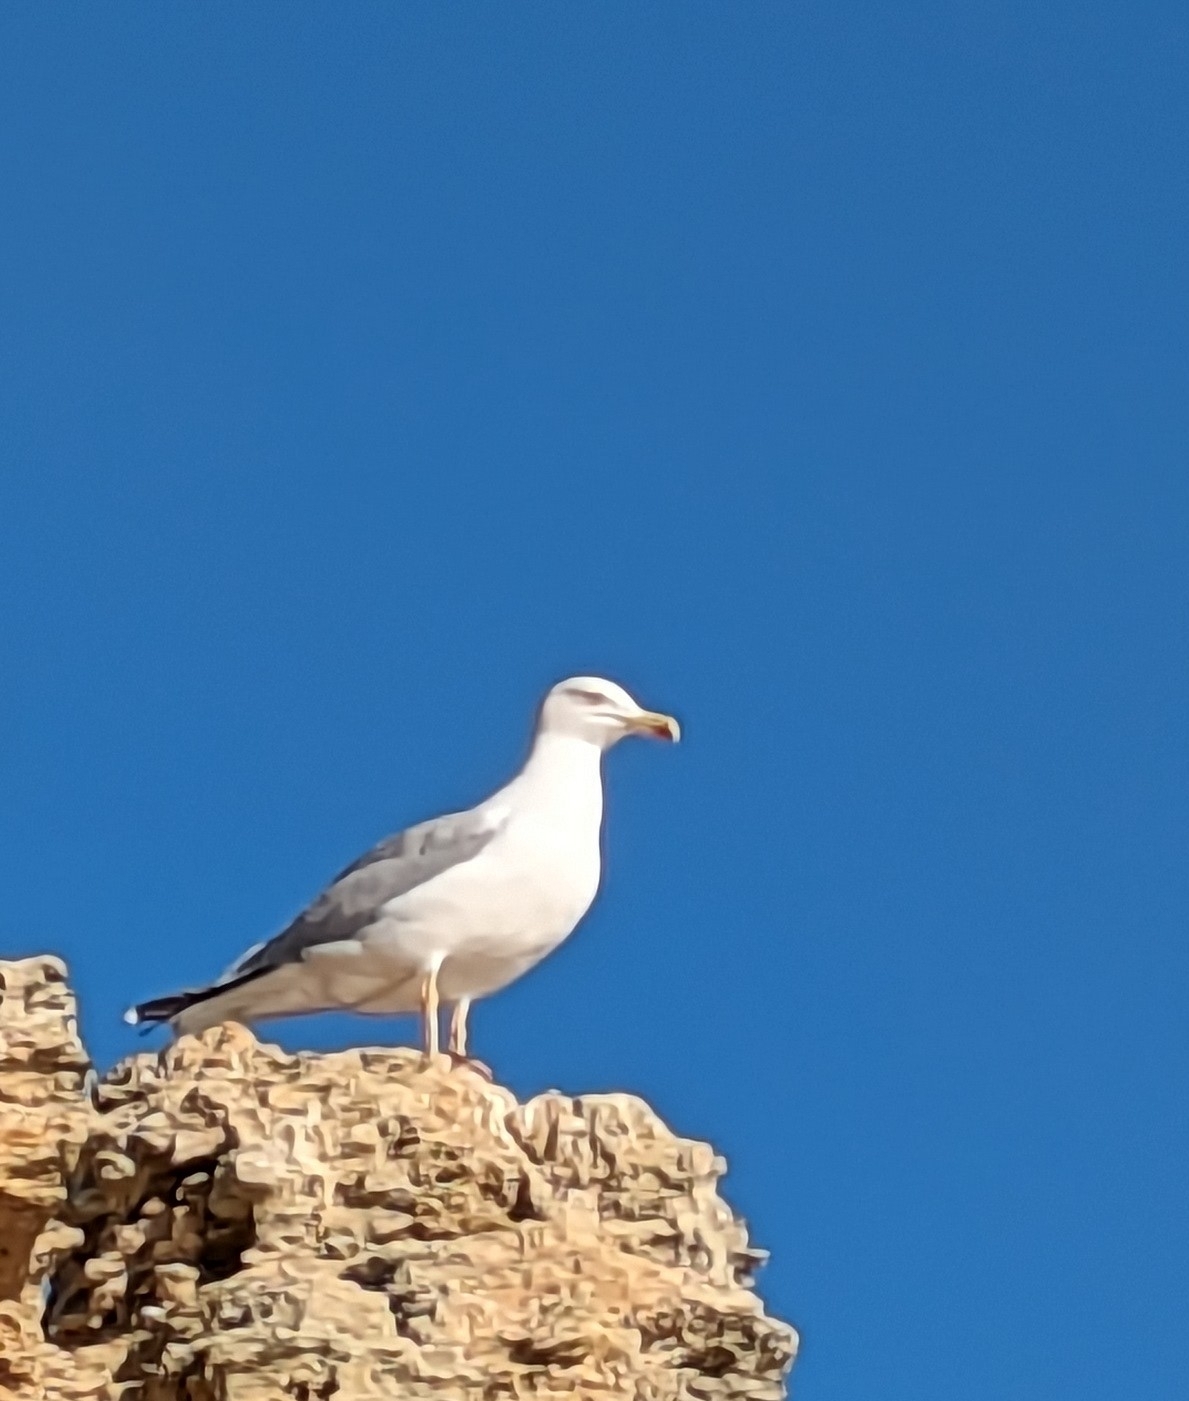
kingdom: Animalia
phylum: Chordata
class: Aves
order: Charadriiformes
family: Laridae
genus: Larus
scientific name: Larus michahellis
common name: Yellow-legged gull
